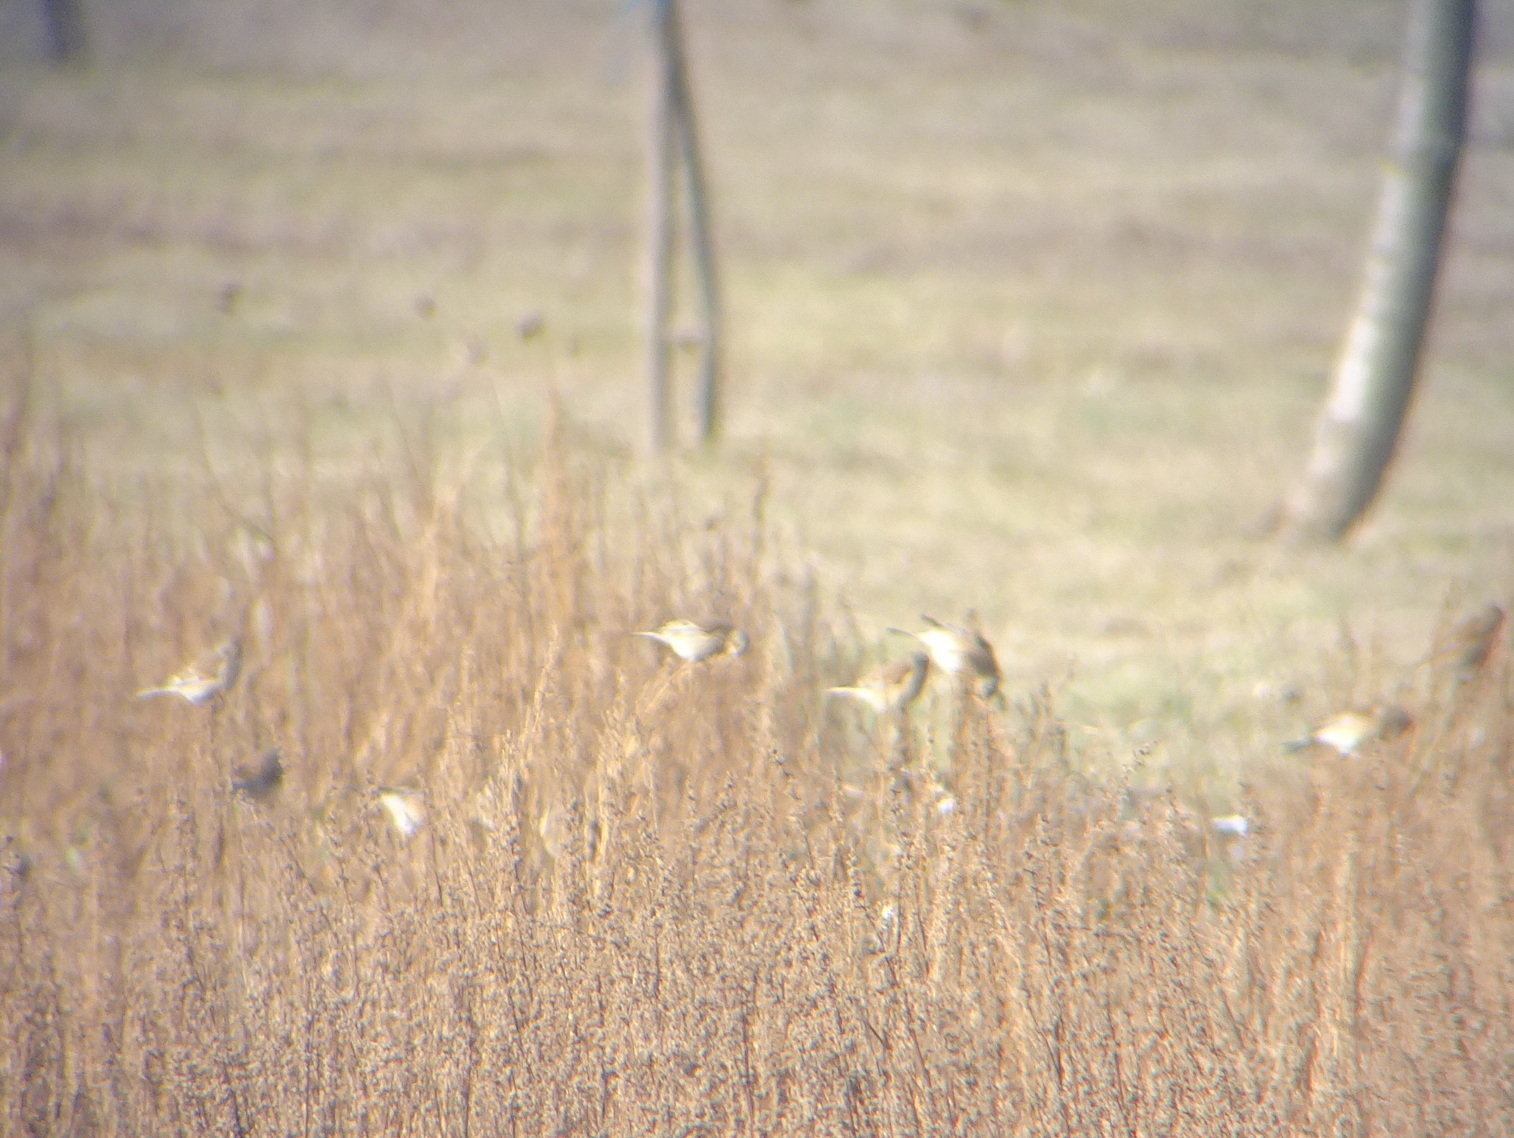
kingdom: Animalia
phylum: Chordata
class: Aves
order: Passeriformes
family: Fringillidae
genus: Linaria
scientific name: Linaria cannabina
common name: Common linnet
